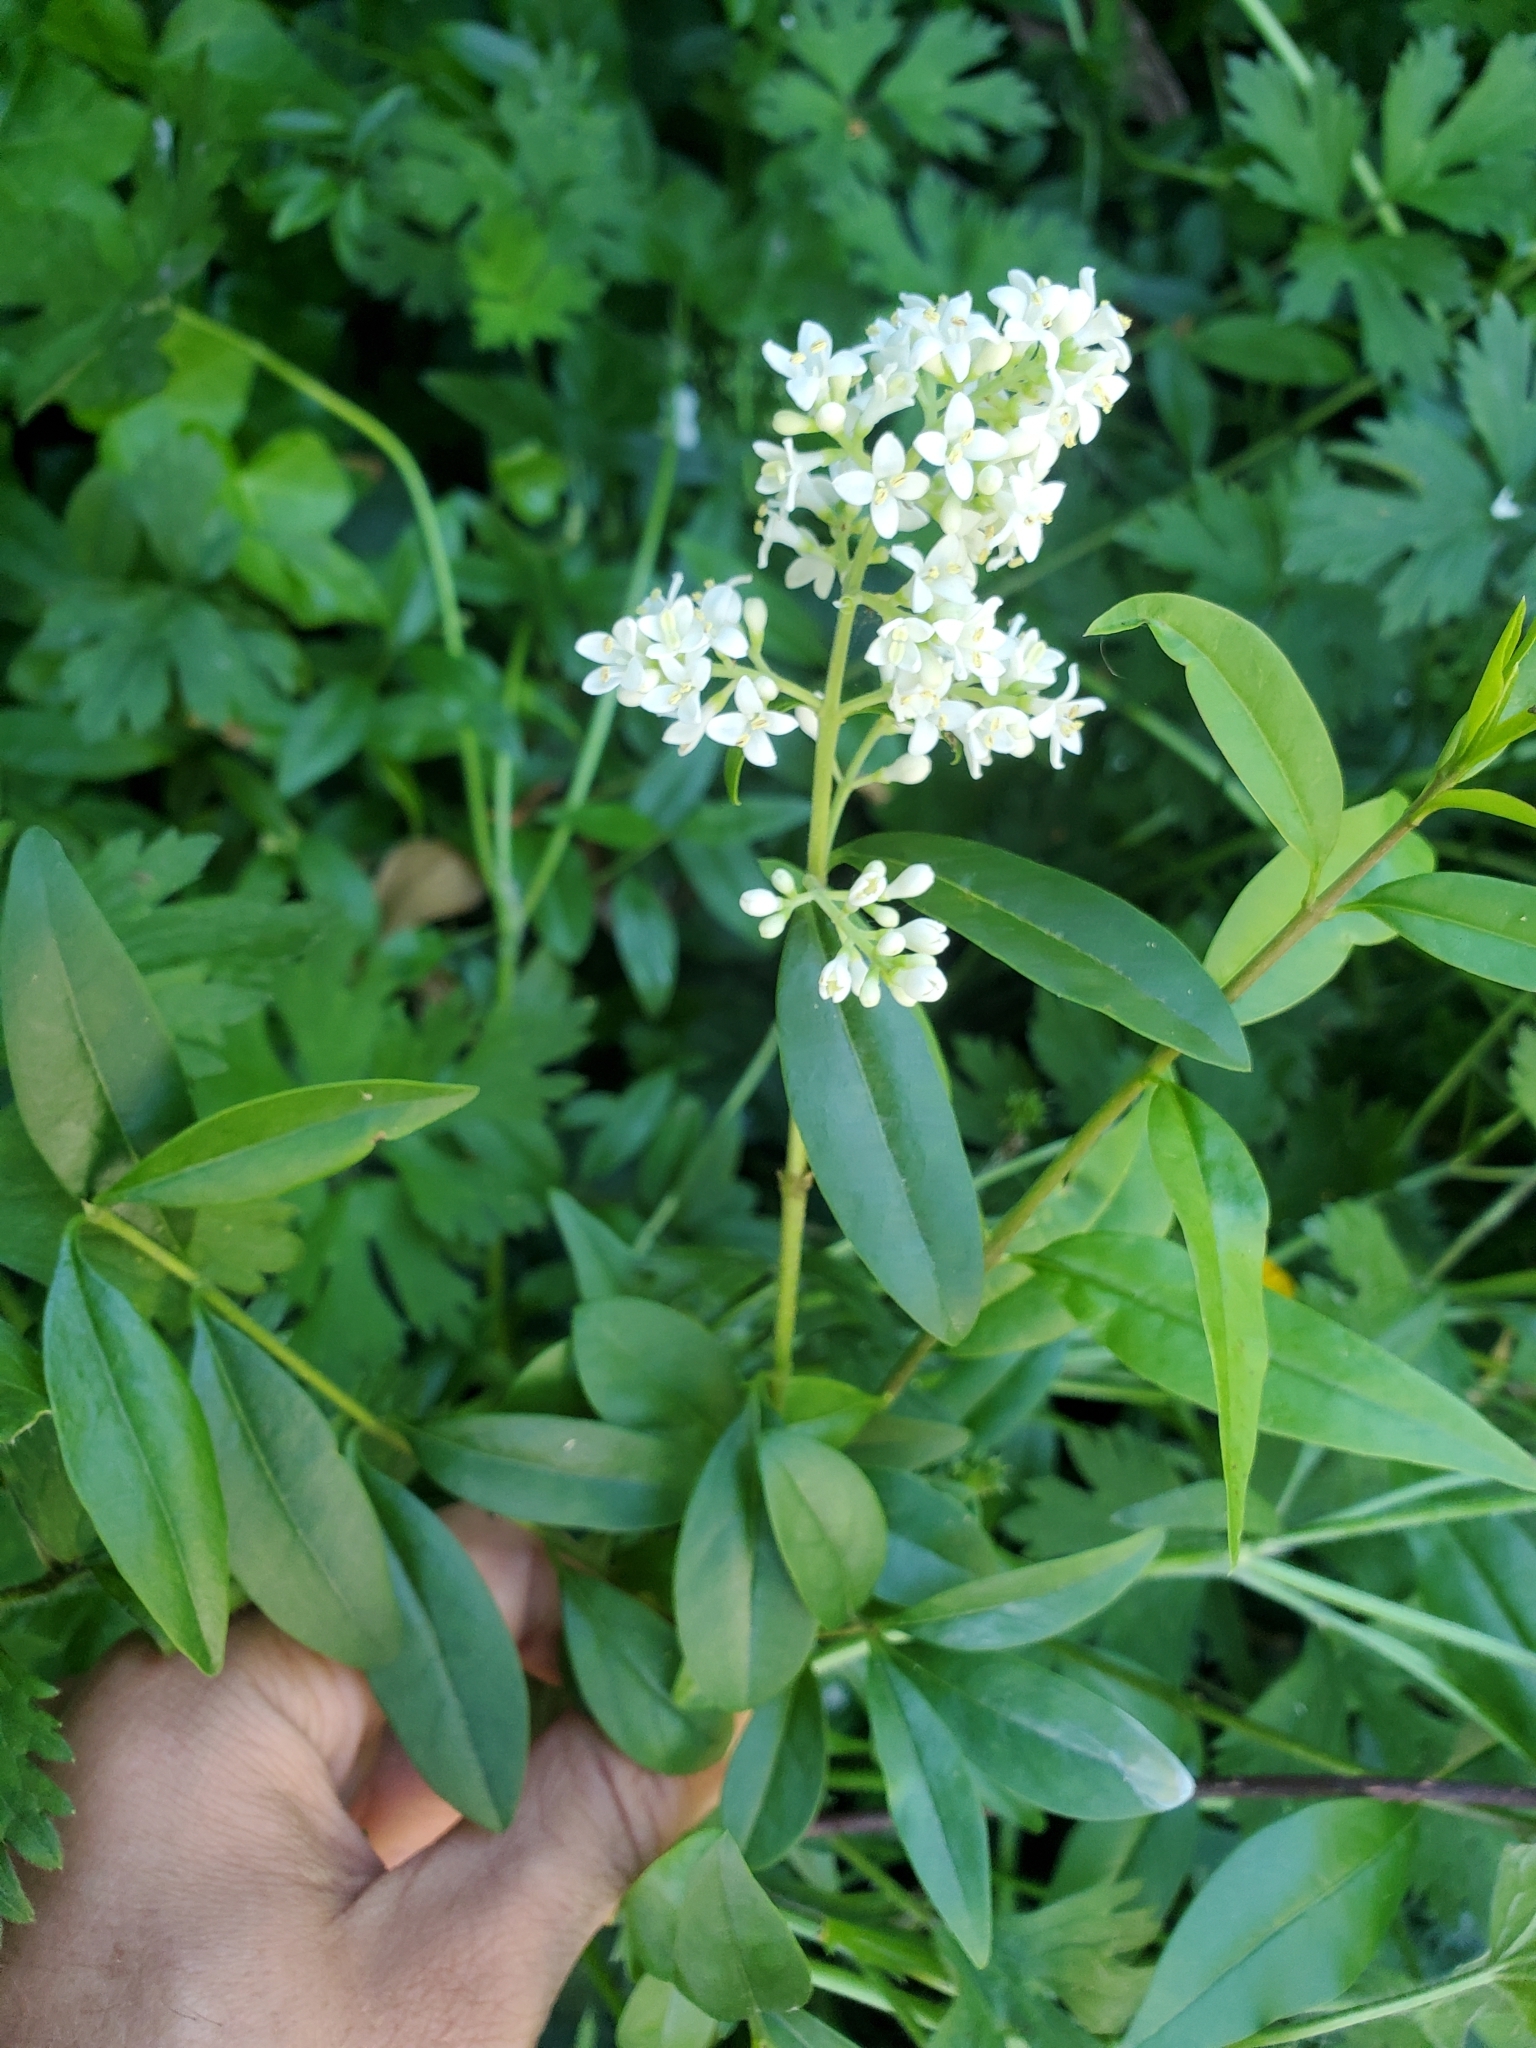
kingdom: Plantae
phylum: Tracheophyta
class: Magnoliopsida
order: Lamiales
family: Oleaceae
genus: Ligustrum
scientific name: Ligustrum vulgare
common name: Wild privet
